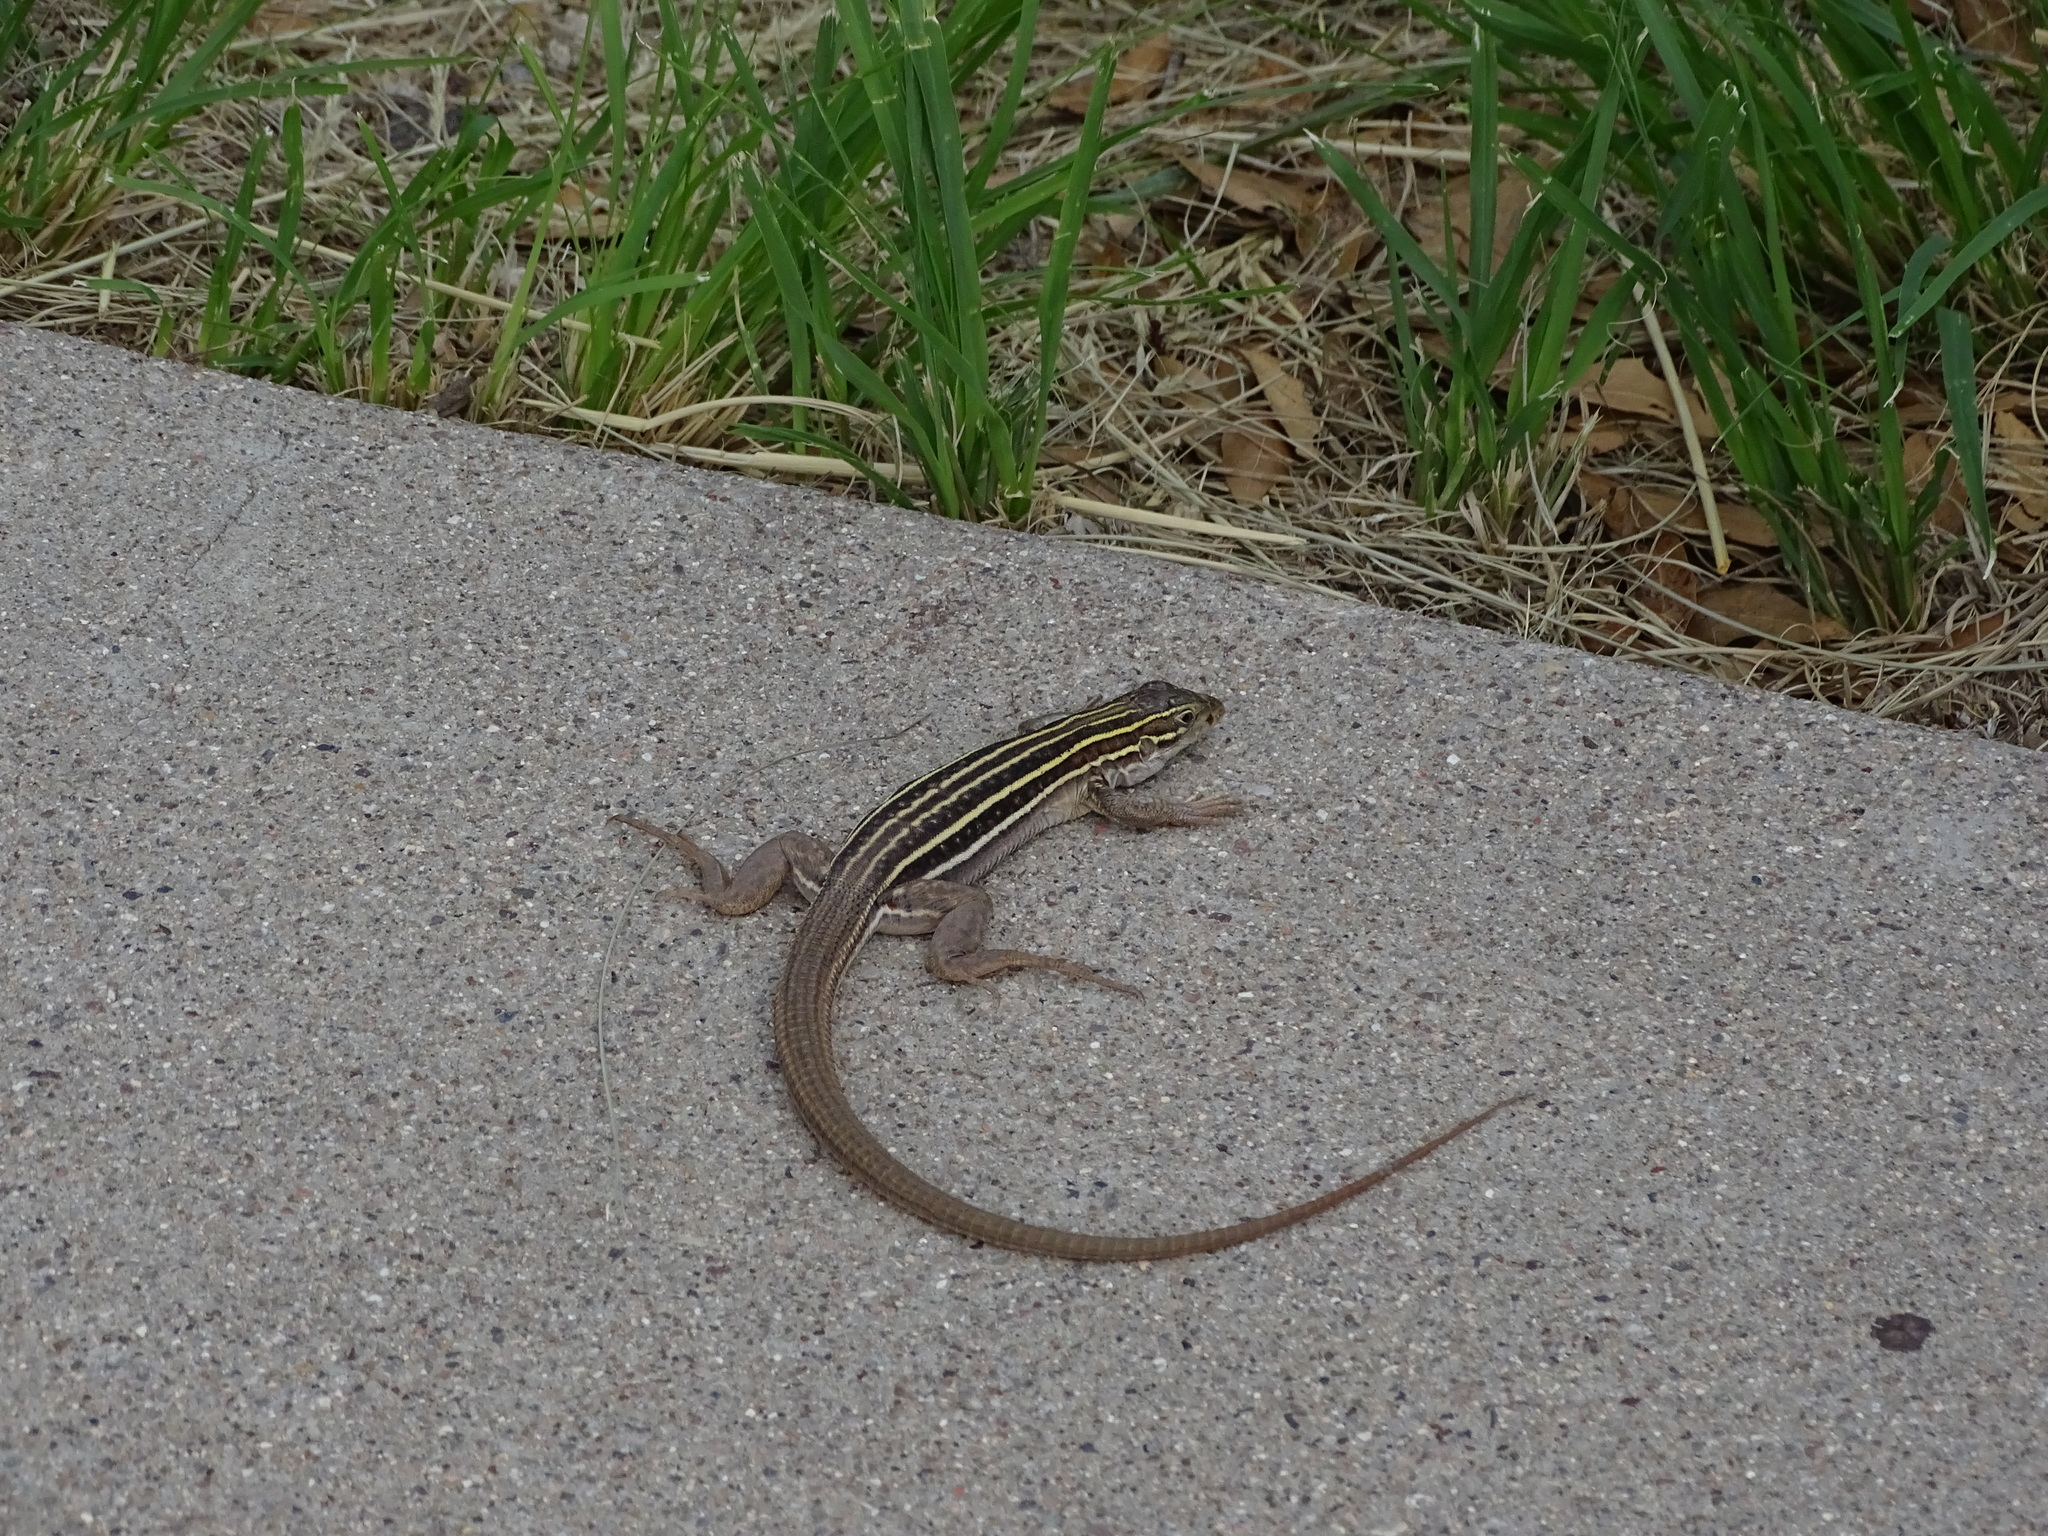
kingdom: Animalia
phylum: Chordata
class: Squamata
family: Teiidae
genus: Aspidoscelis
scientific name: Aspidoscelis sonorae
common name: Sonoran spotted whiptail
